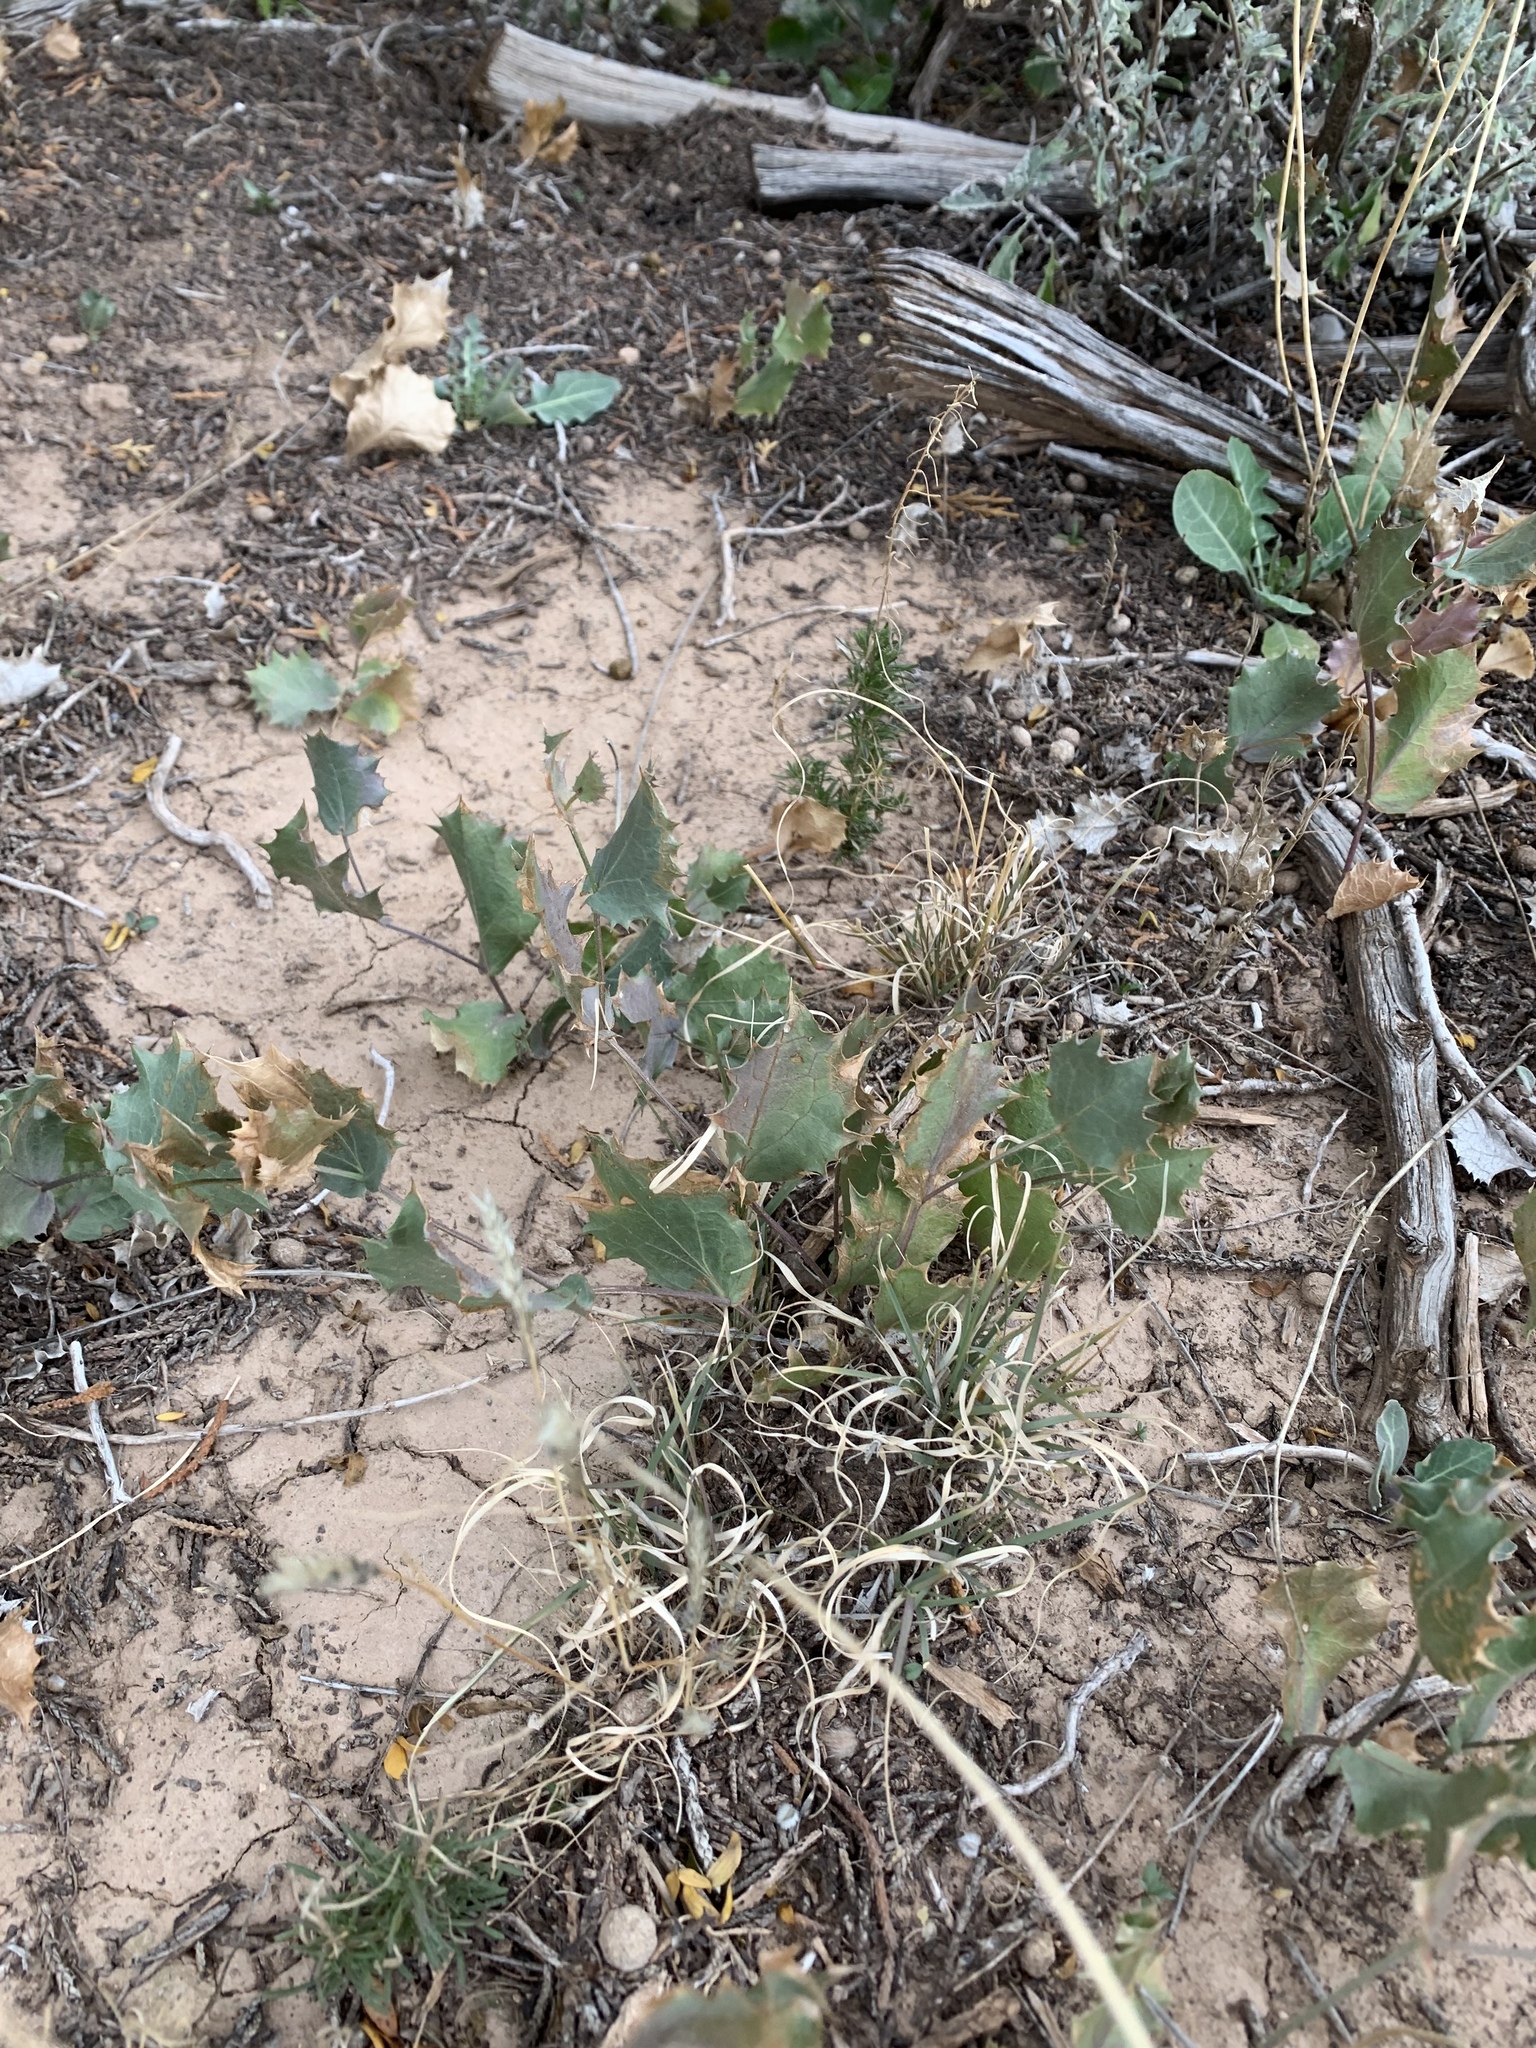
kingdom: Plantae
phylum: Tracheophyta
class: Magnoliopsida
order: Asterales
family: Asteraceae
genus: Acourtia
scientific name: Acourtia nana
